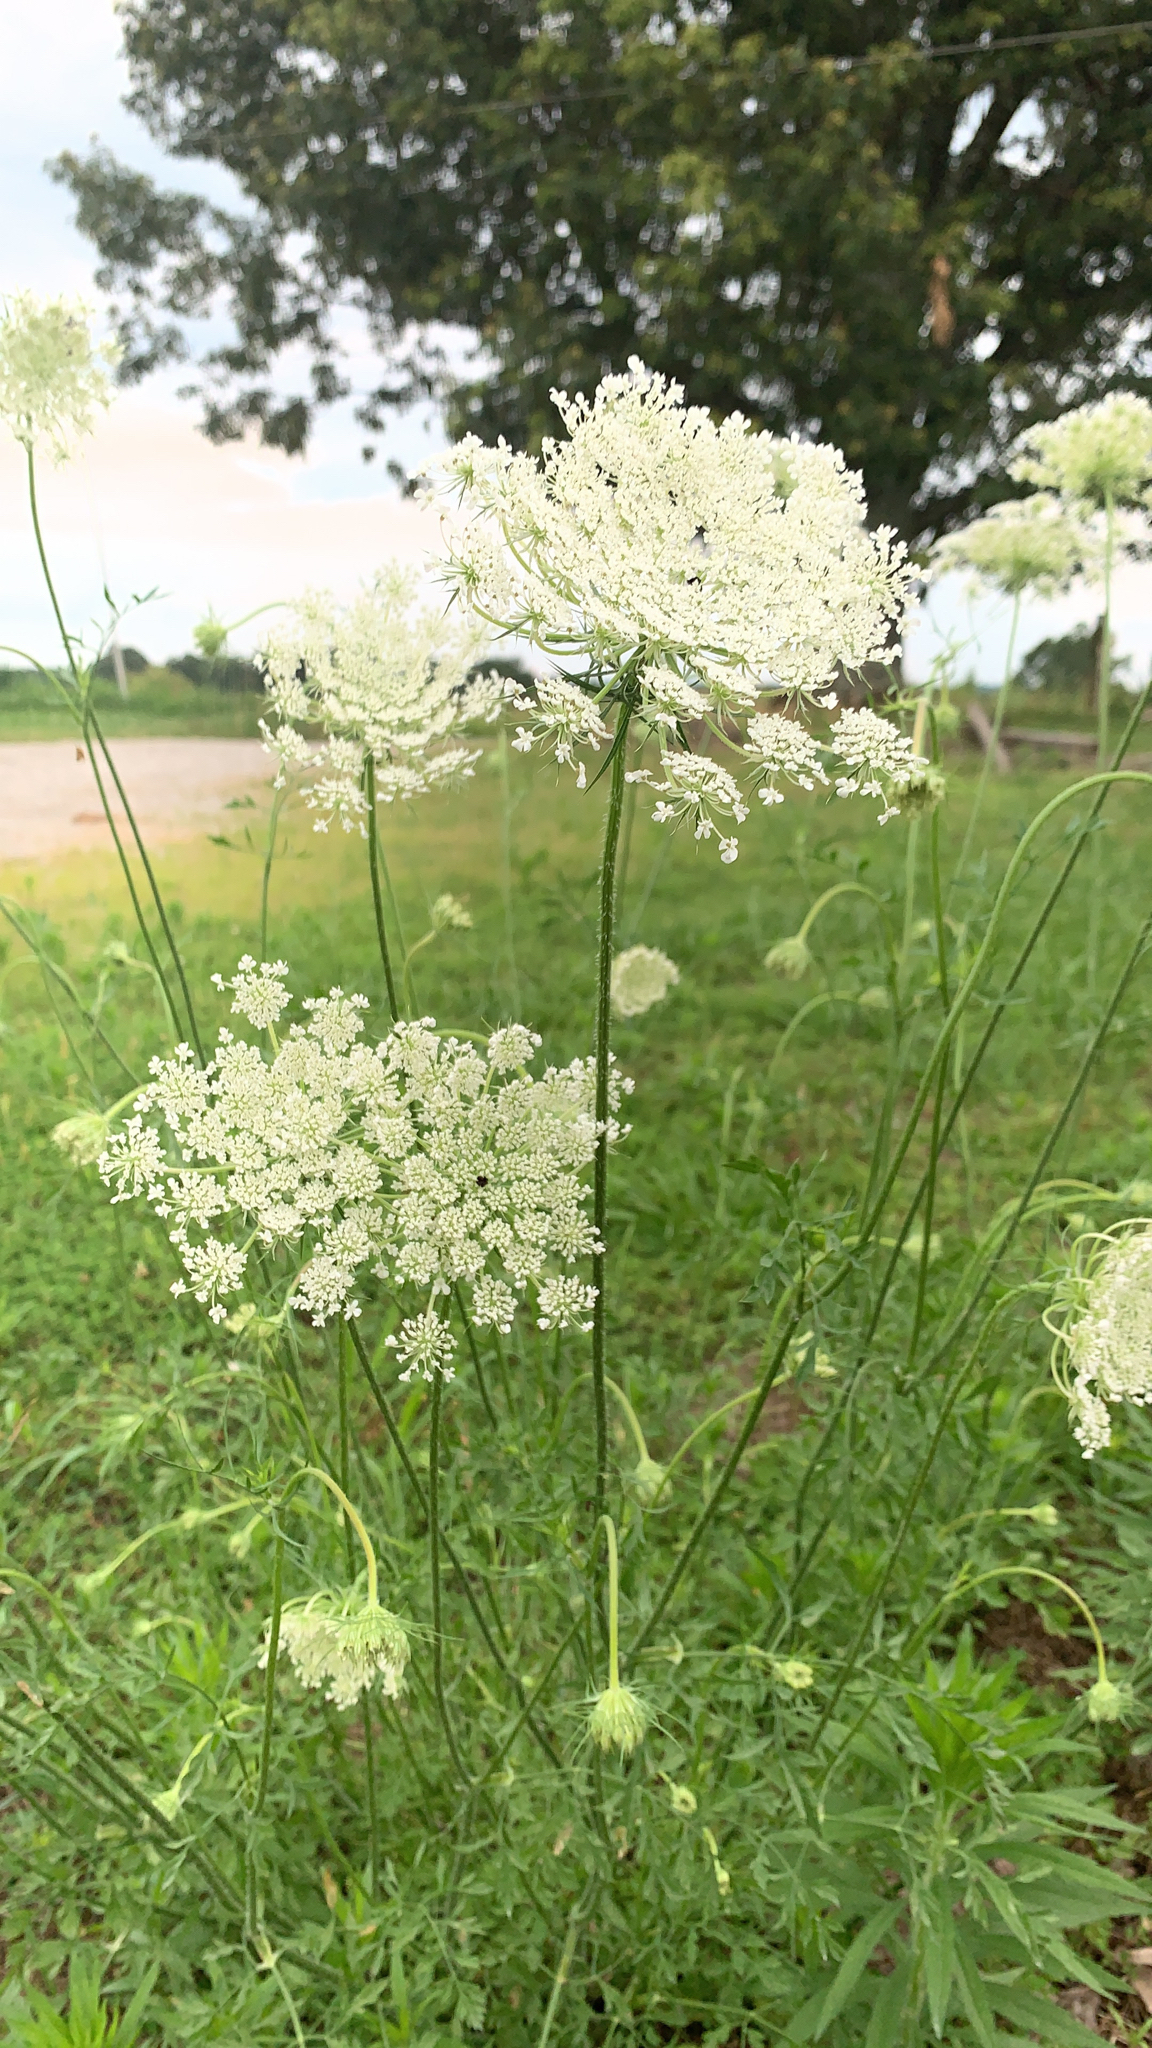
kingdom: Plantae
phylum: Tracheophyta
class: Magnoliopsida
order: Apiales
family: Apiaceae
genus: Daucus
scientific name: Daucus carota
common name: Wild carrot
